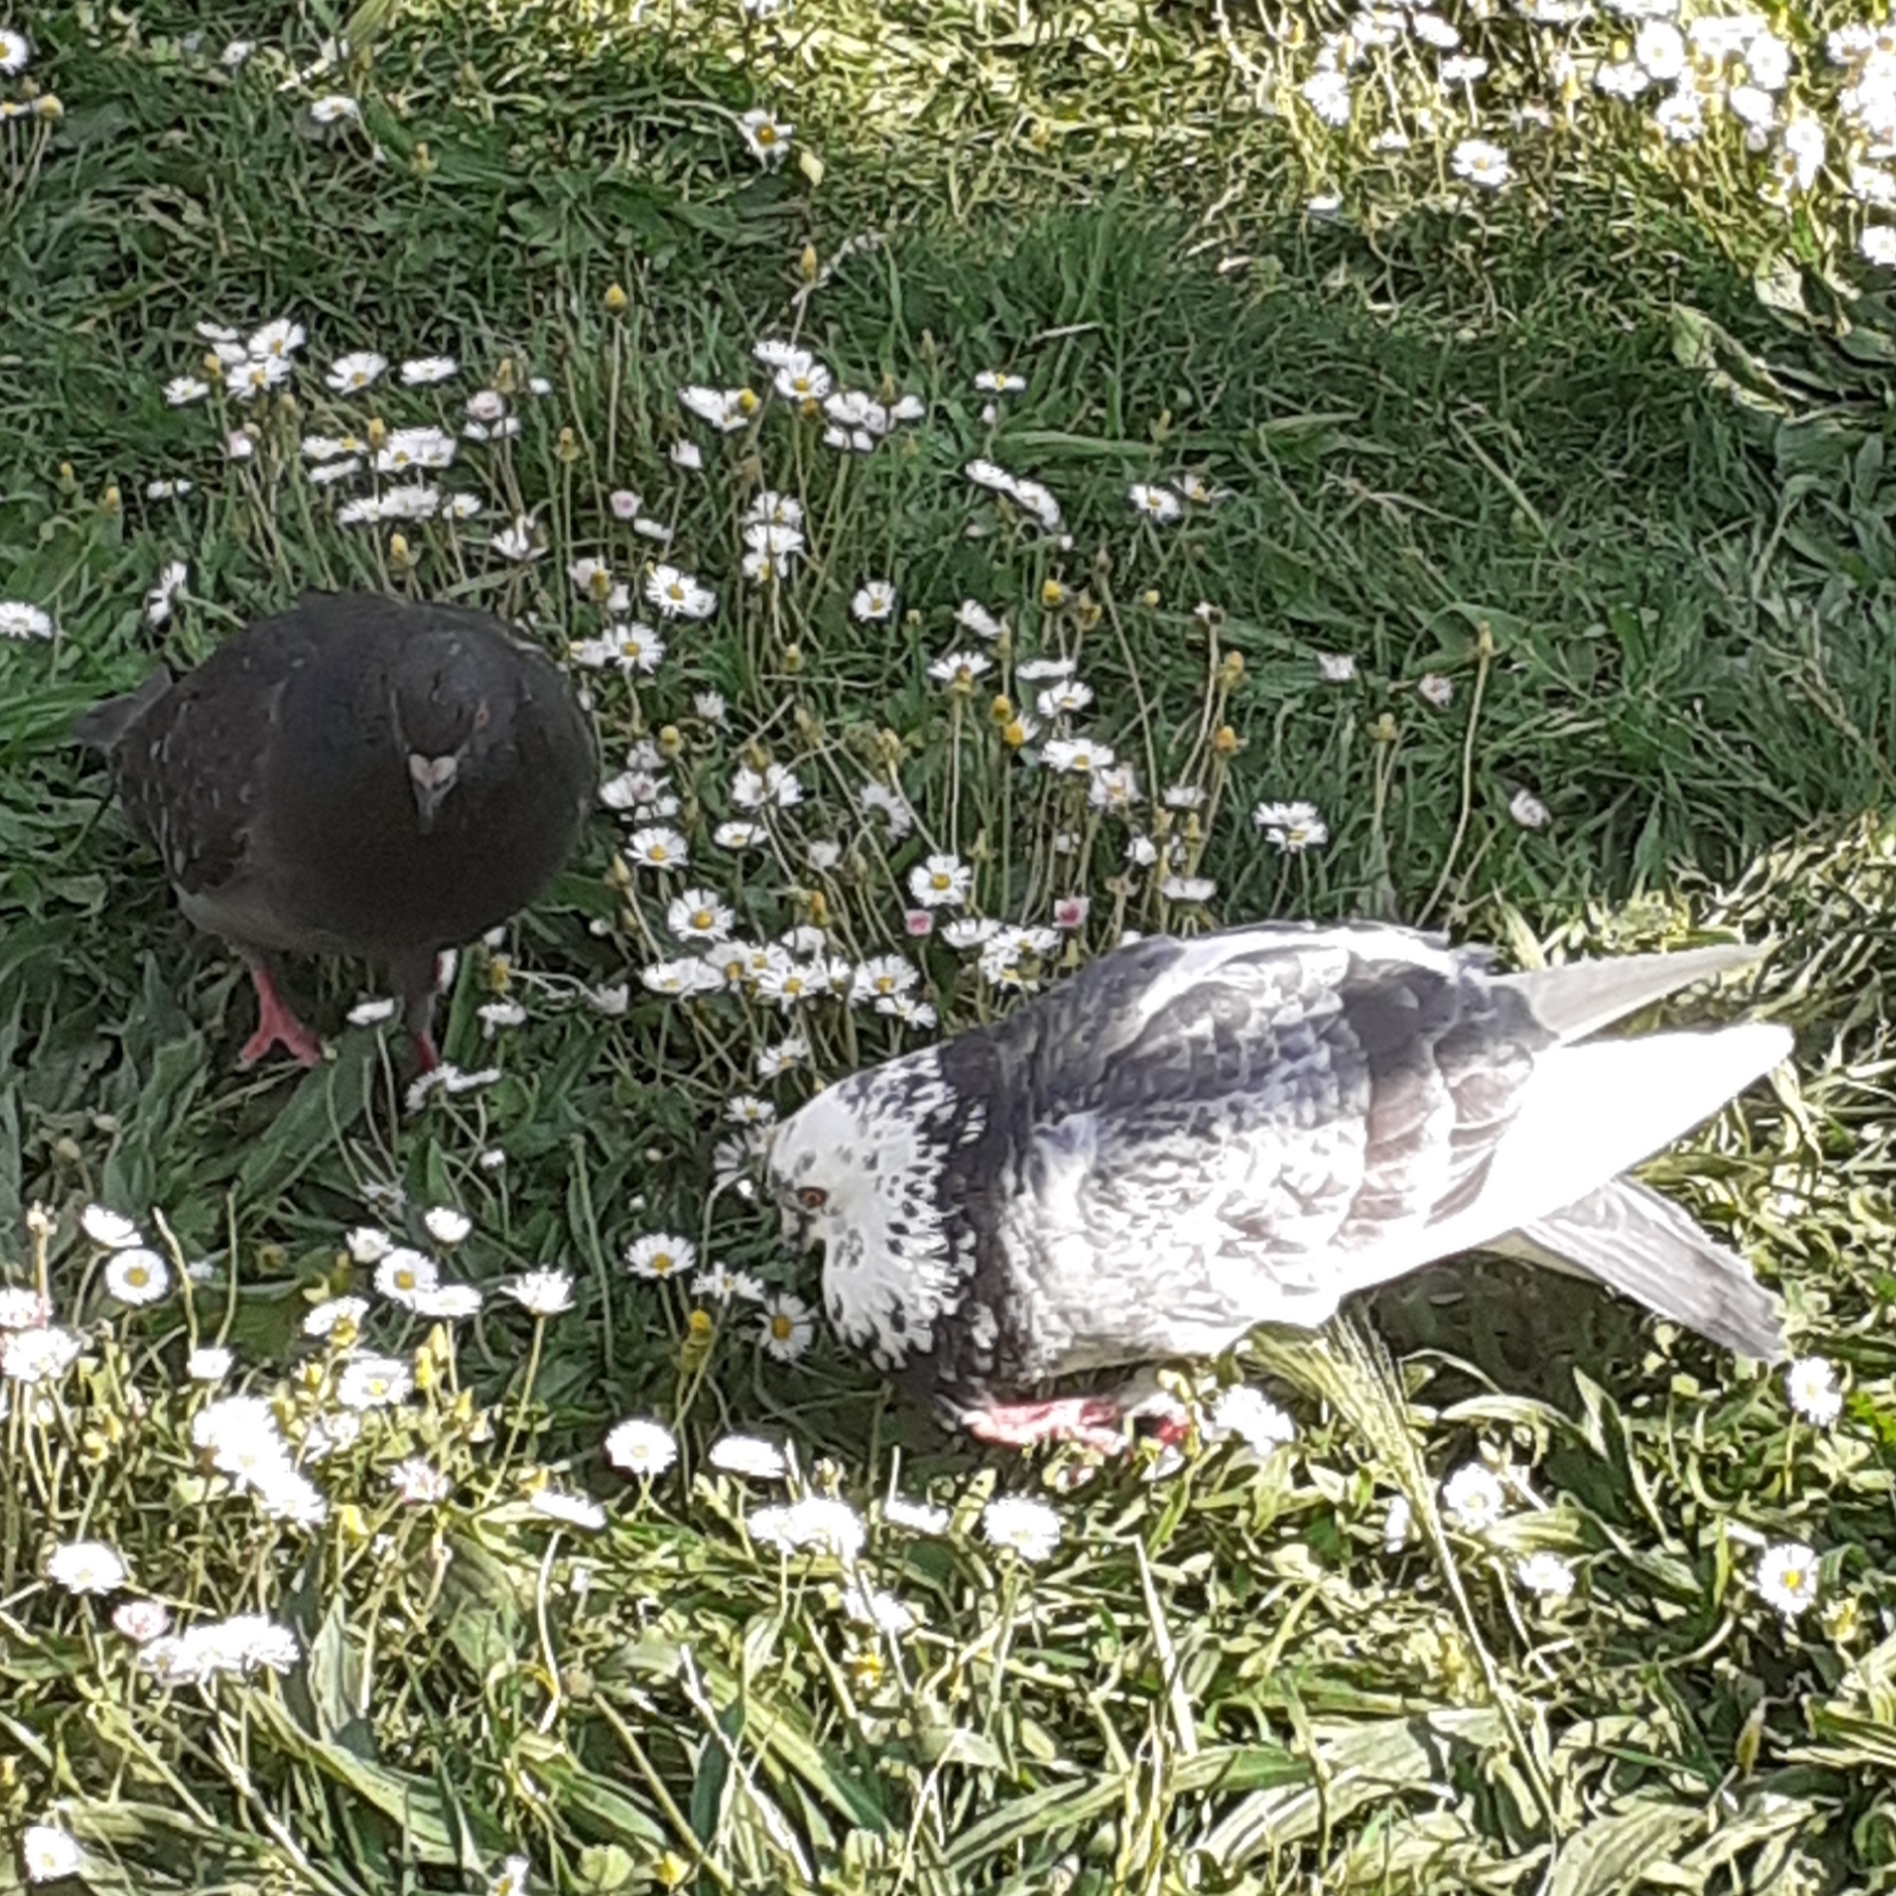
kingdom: Animalia
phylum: Chordata
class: Aves
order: Columbiformes
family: Columbidae
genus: Columba
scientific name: Columba livia
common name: Rock pigeon
